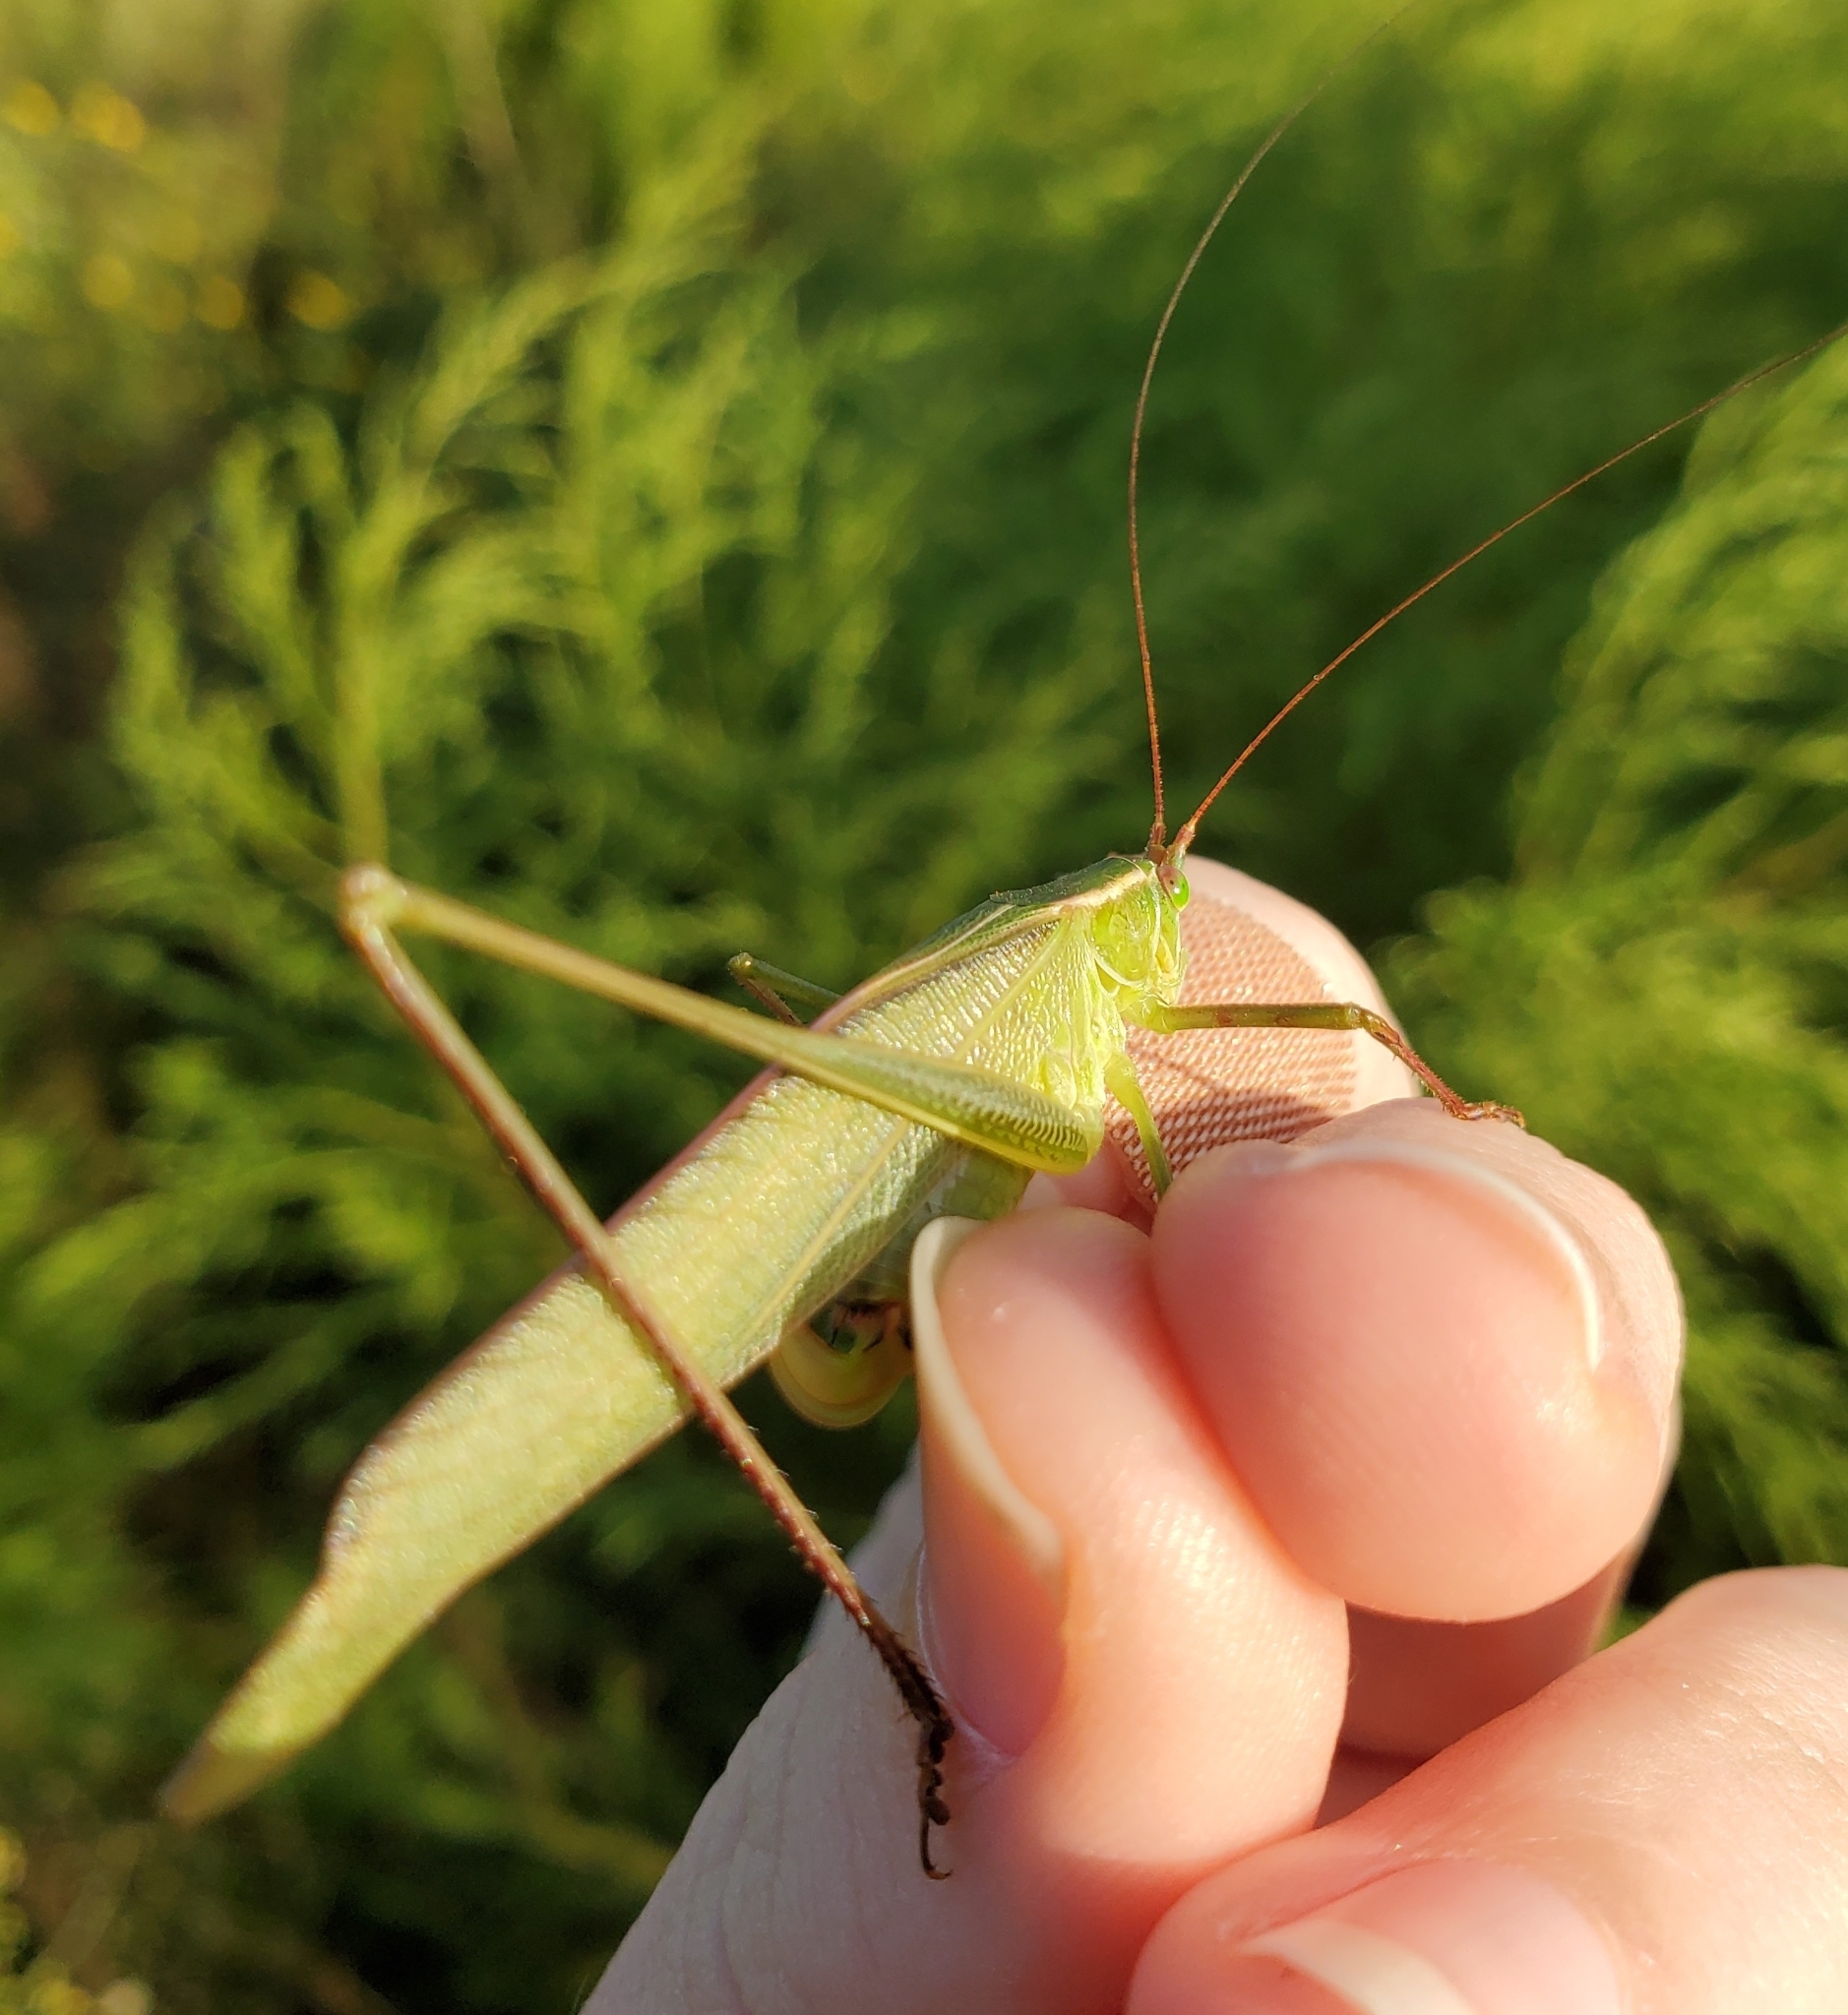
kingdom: Animalia
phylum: Arthropoda
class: Insecta
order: Orthoptera
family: Tettigoniidae
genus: Scudderia
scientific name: Scudderia curvicauda
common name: Curve-tailed bush katydid
